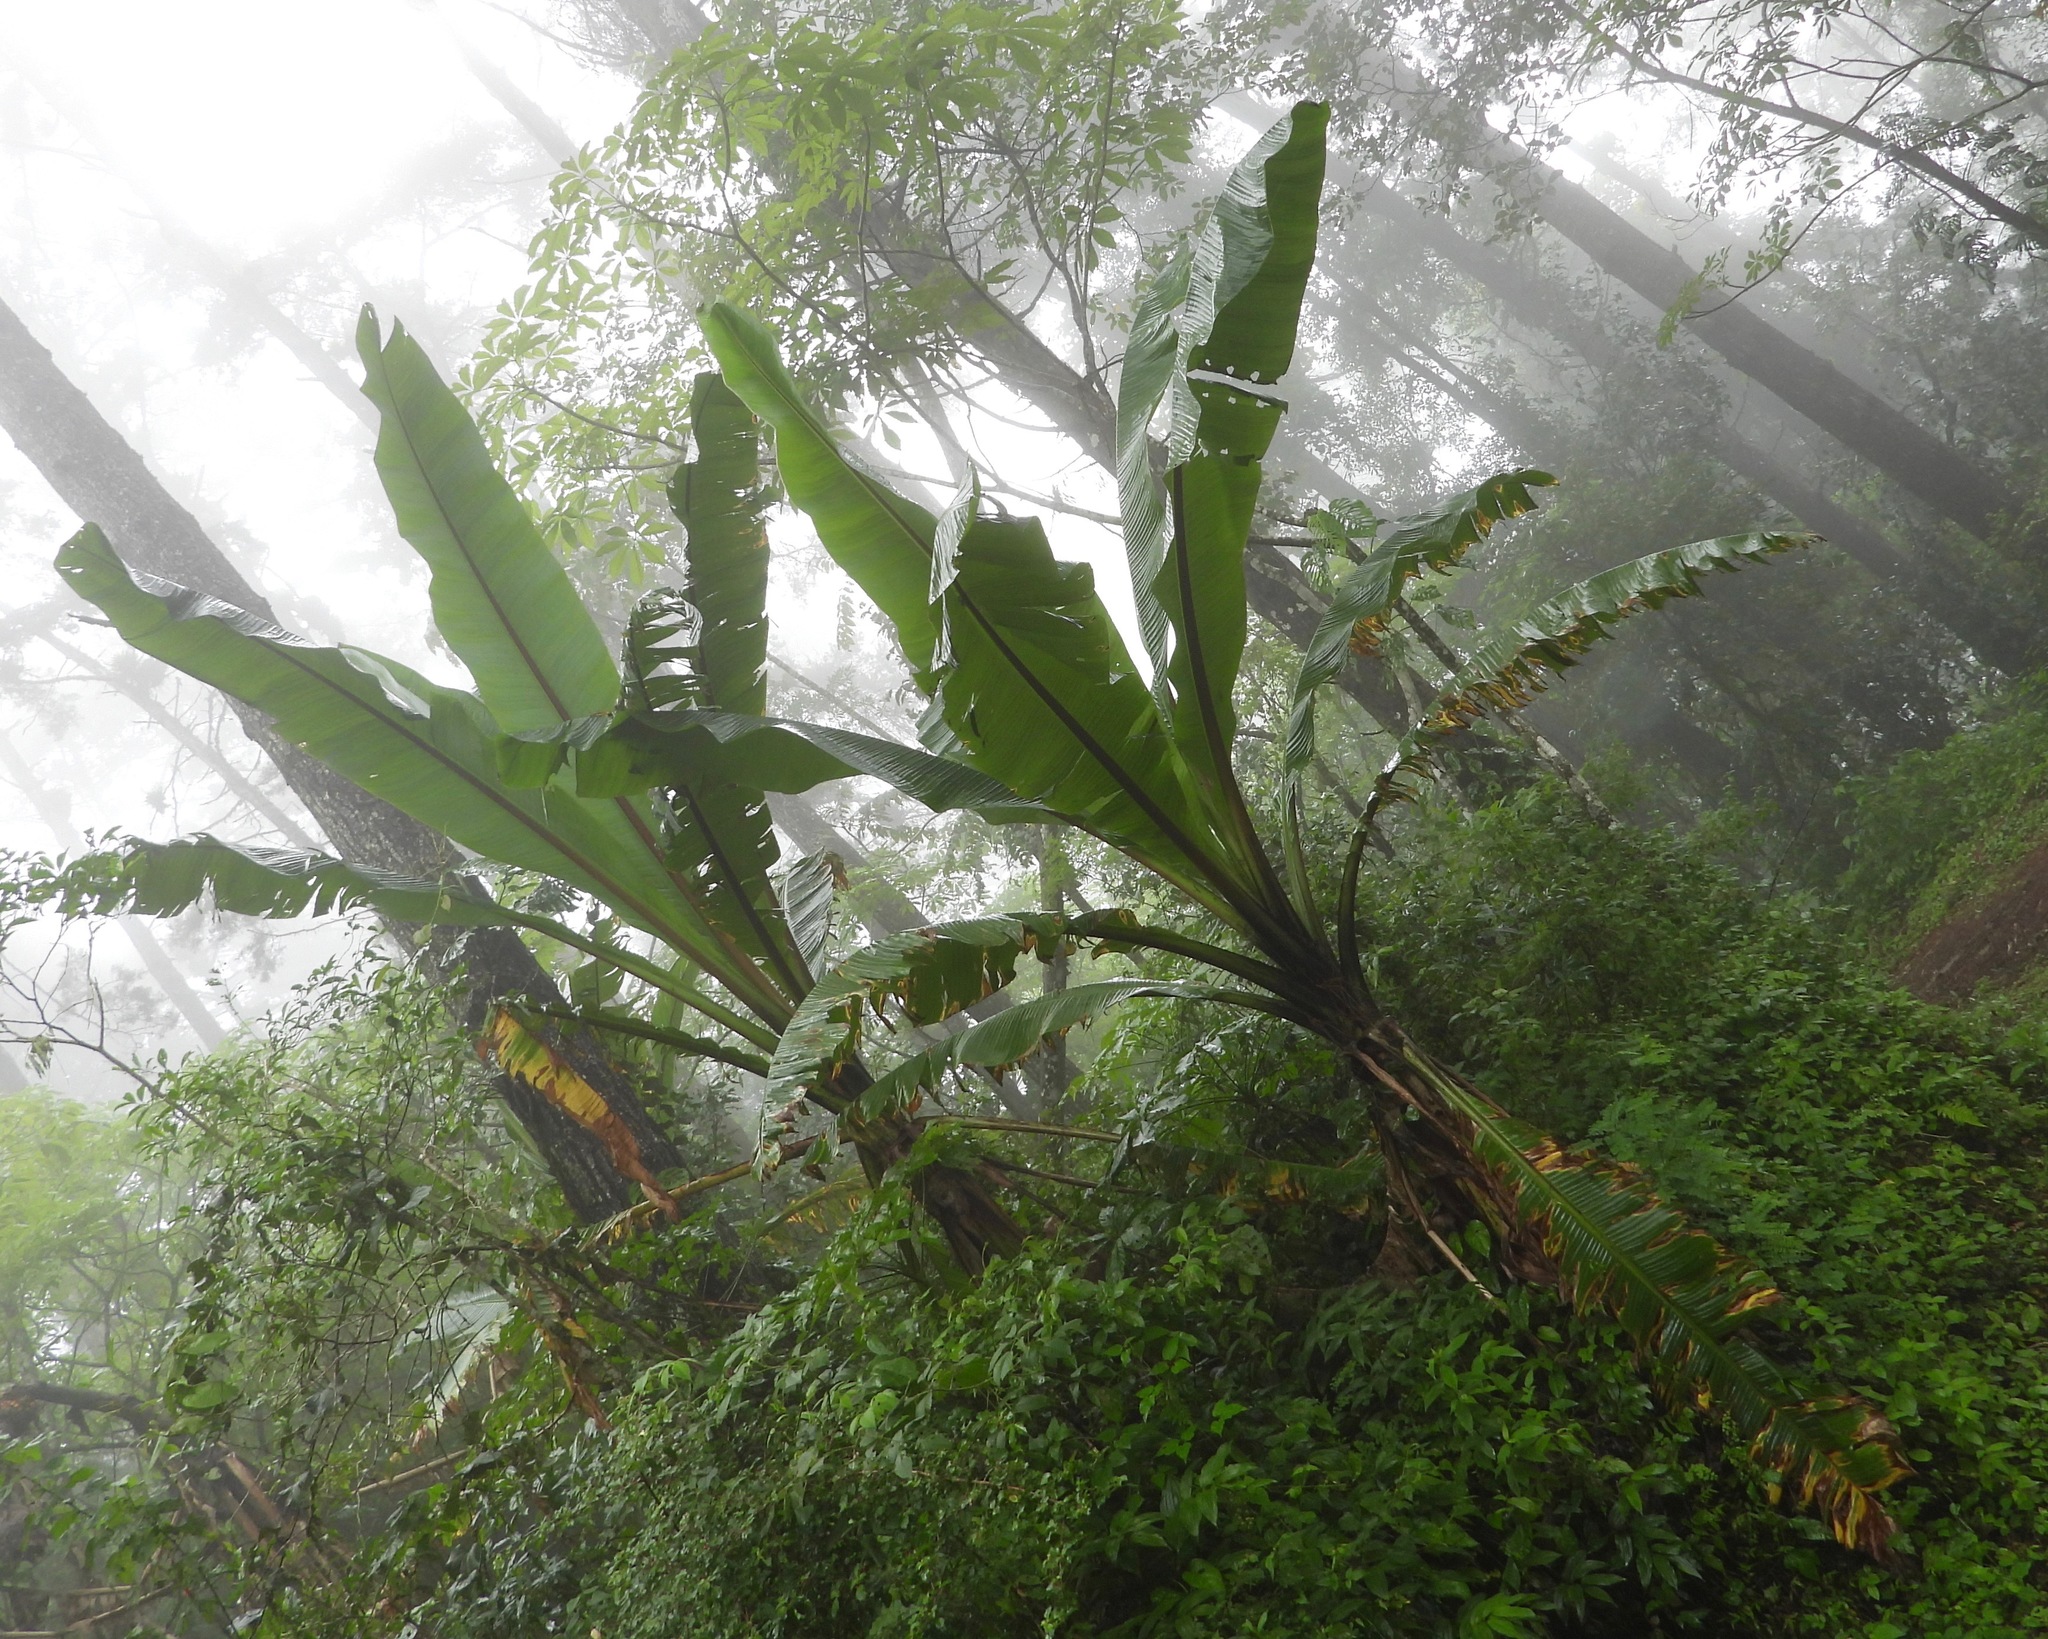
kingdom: Plantae
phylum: Tracheophyta
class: Liliopsida
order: Zingiberales
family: Musaceae
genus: Ensete
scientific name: Ensete ventricosum
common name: Abyssinian banana
